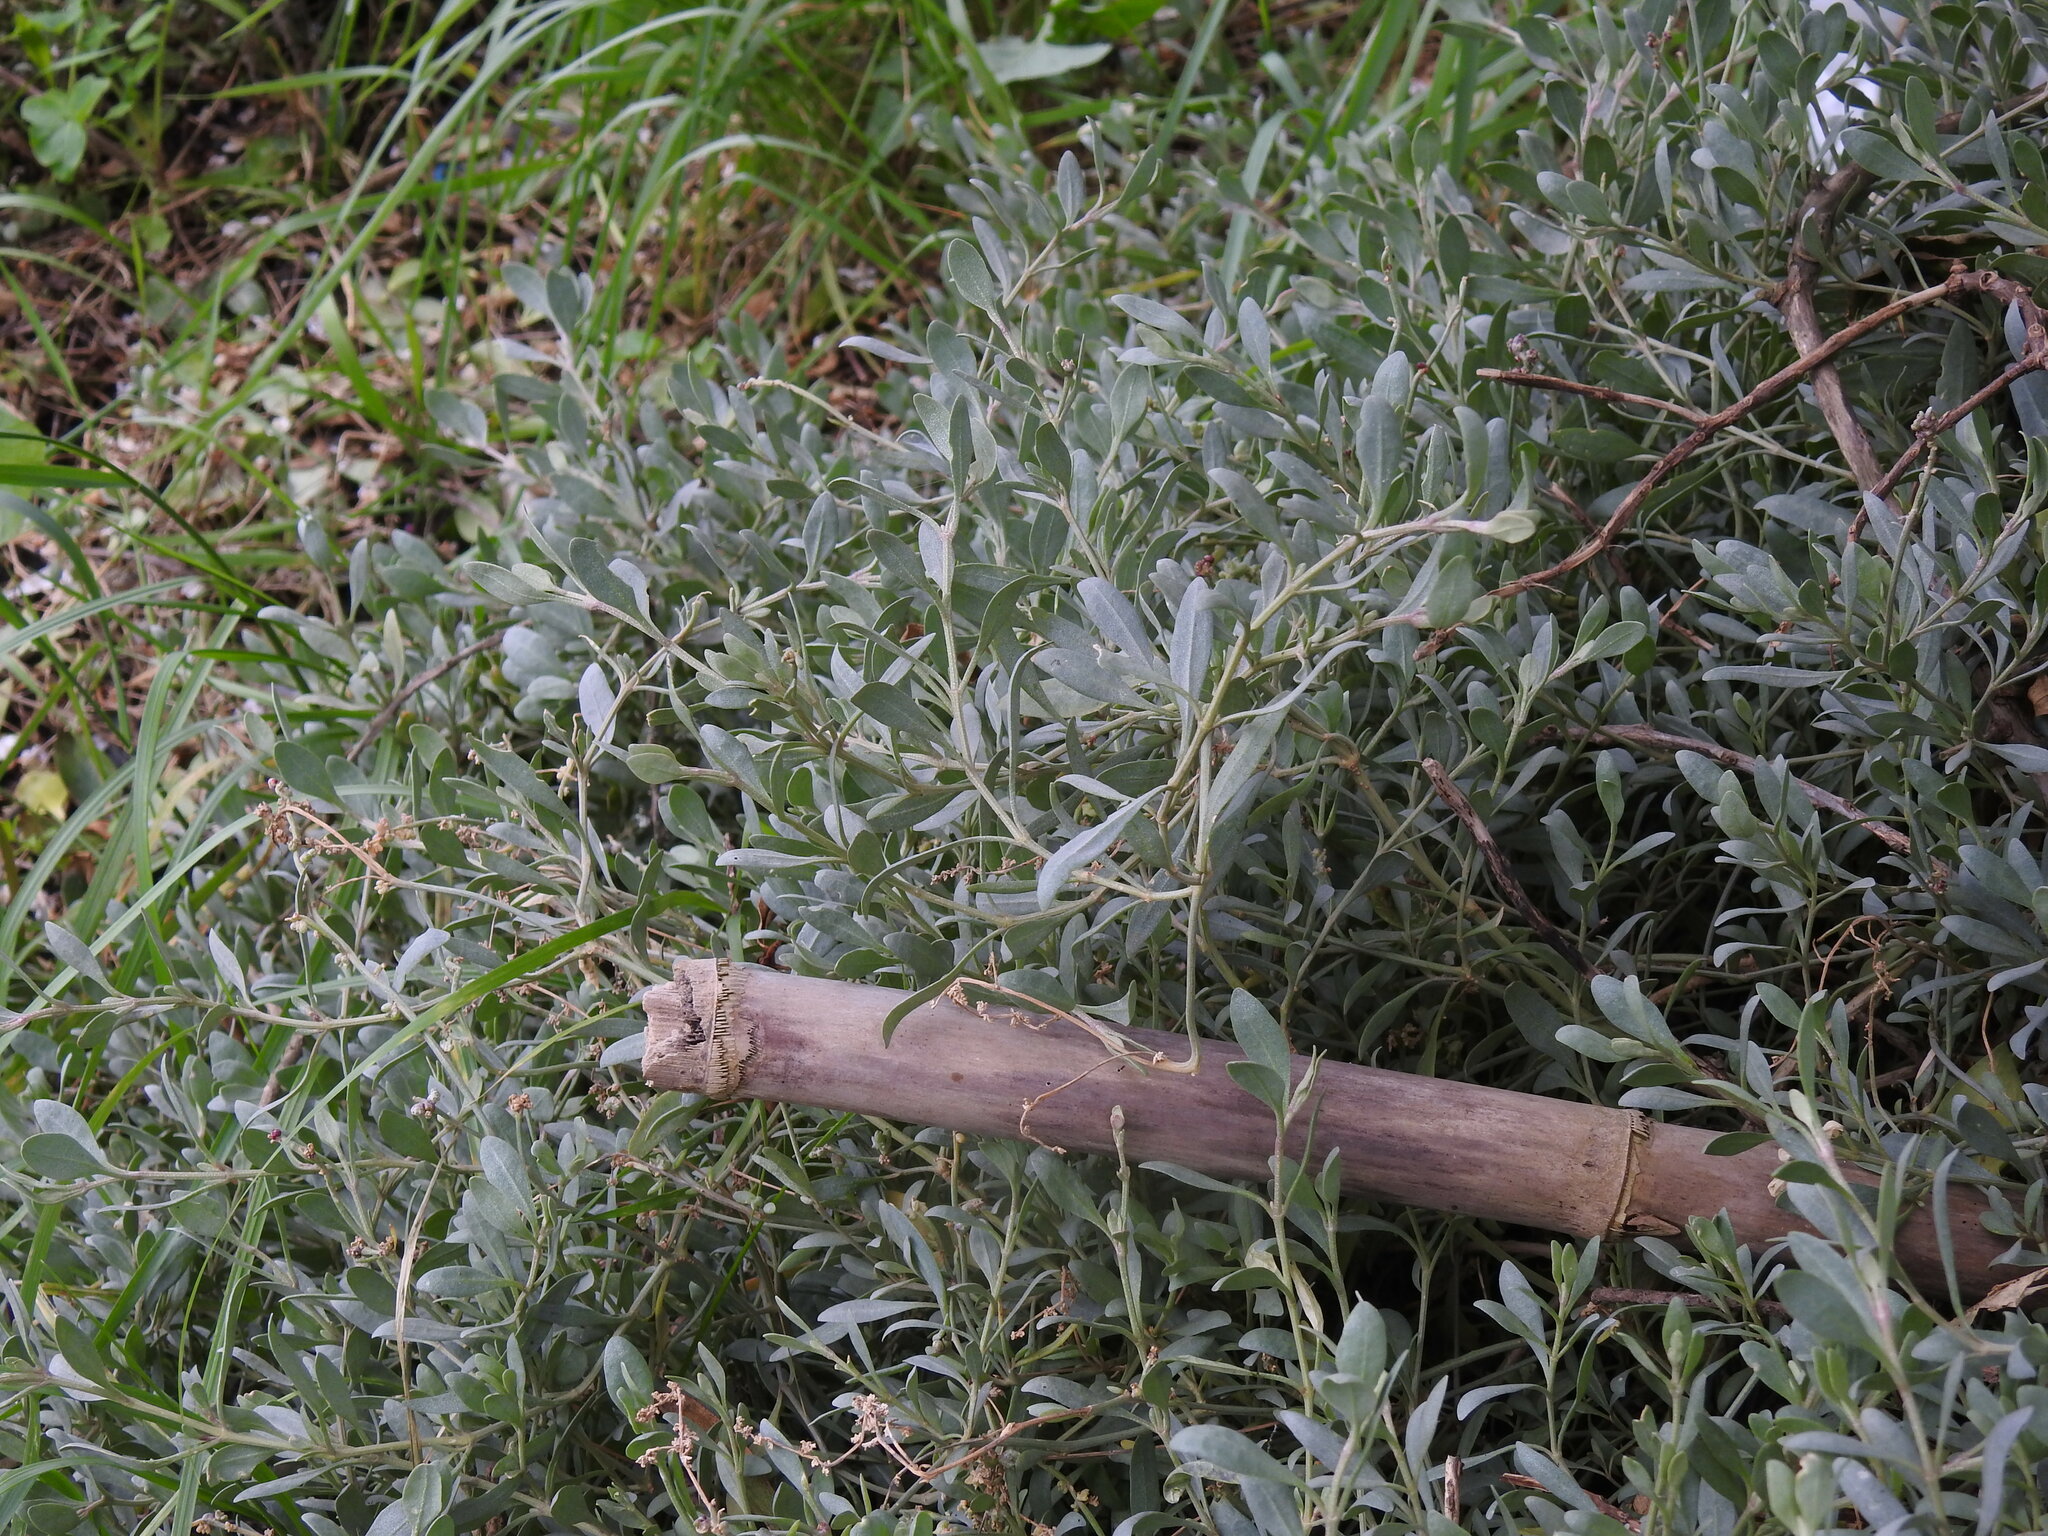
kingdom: Plantae
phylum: Tracheophyta
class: Magnoliopsida
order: Caryophyllales
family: Amaranthaceae
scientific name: Amaranthaceae
